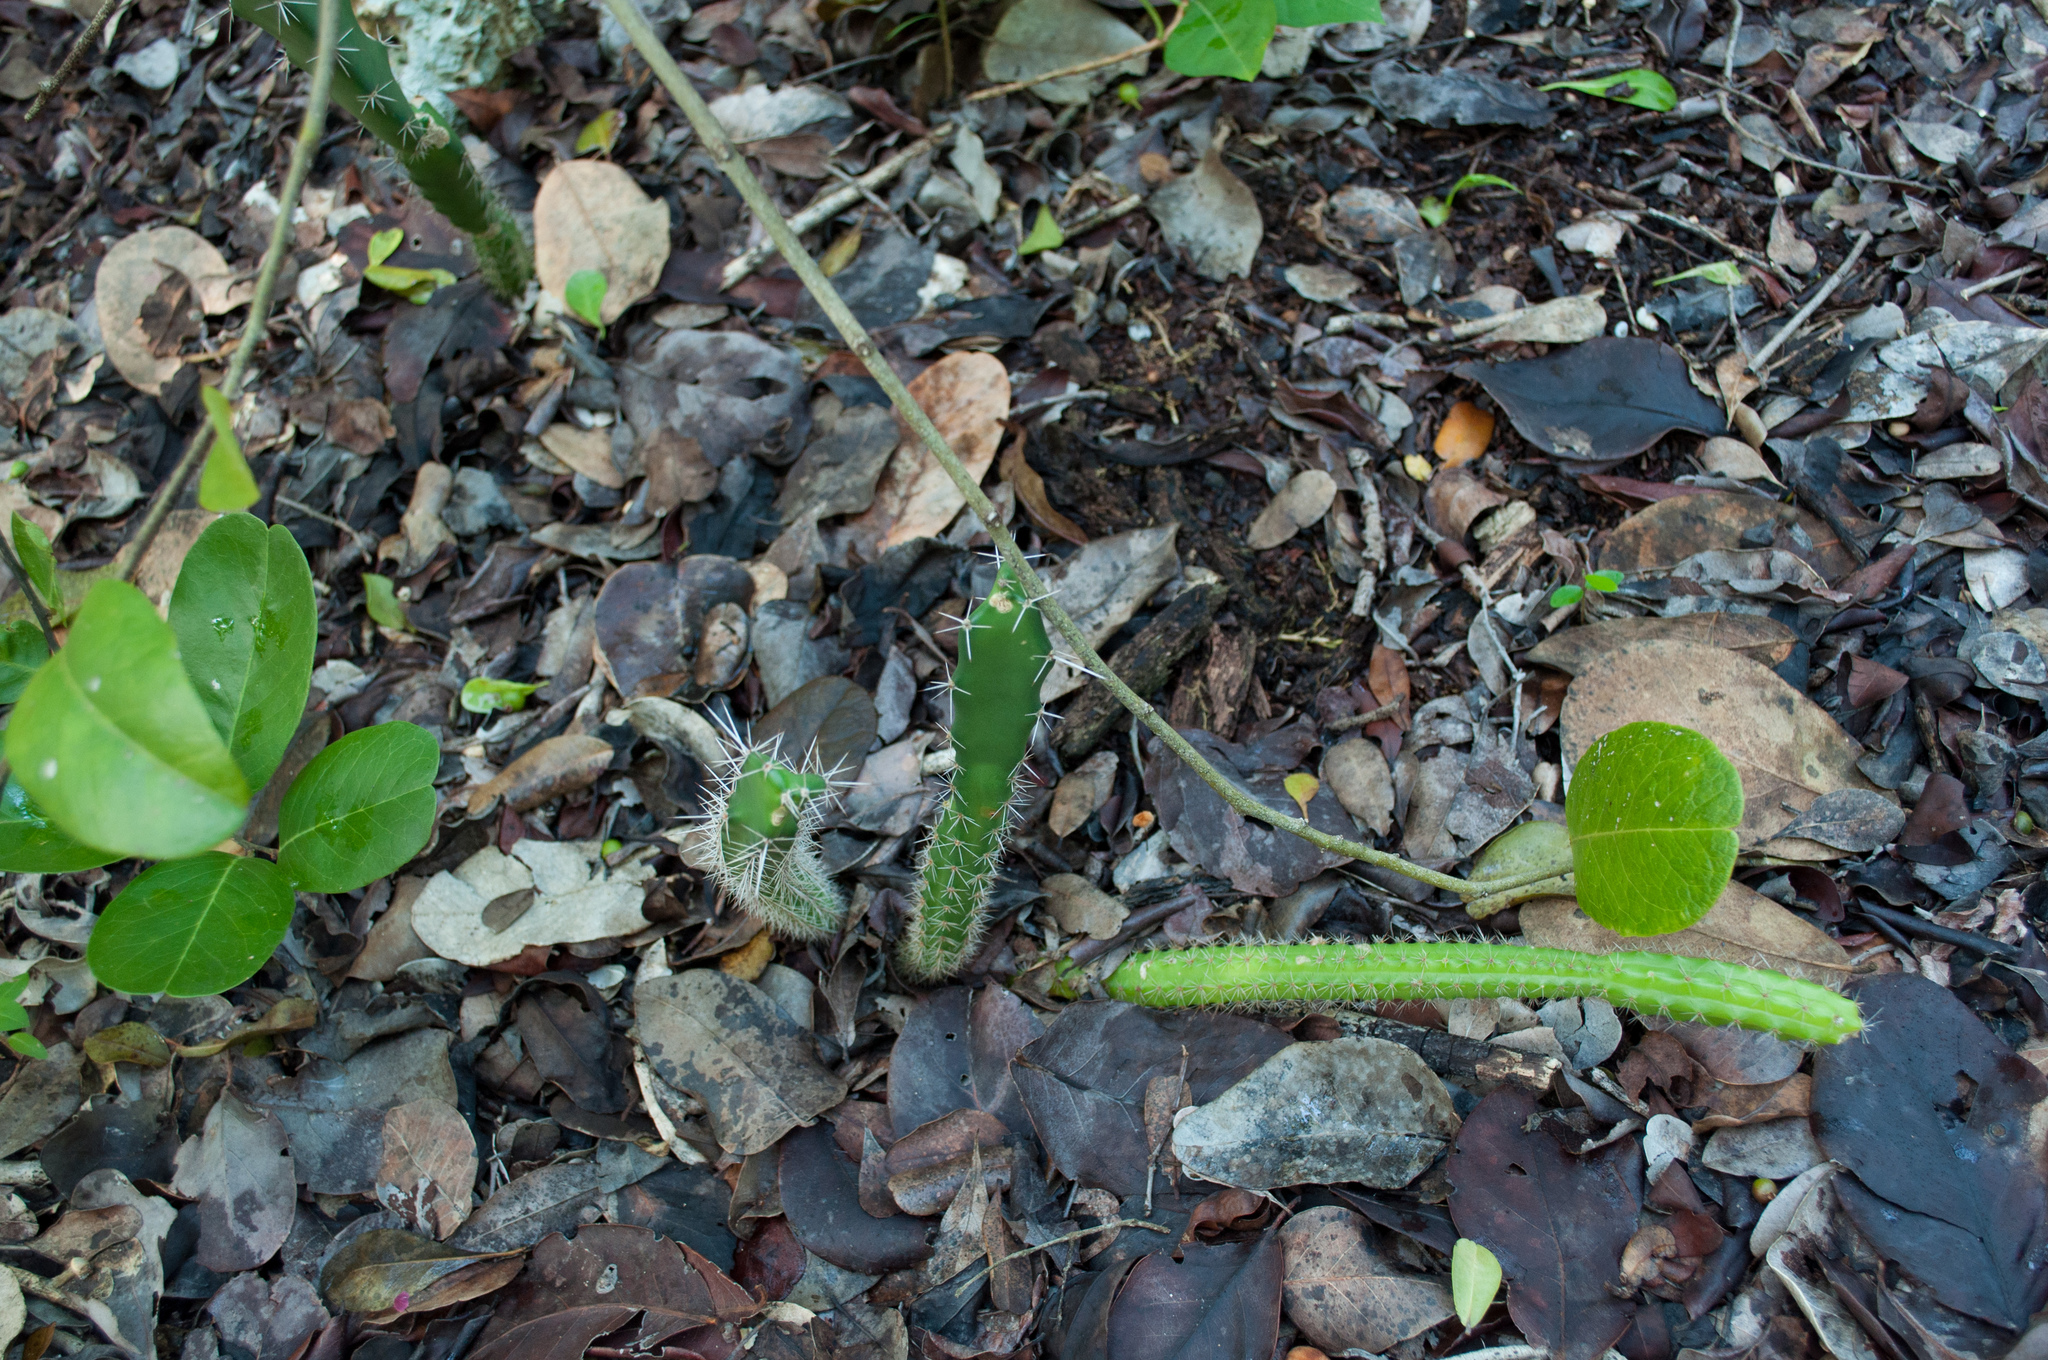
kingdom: Plantae
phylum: Tracheophyta
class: Magnoliopsida
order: Caryophyllales
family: Cactaceae
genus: Acanthocereus
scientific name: Acanthocereus tetragonus
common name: Triangle cactus
